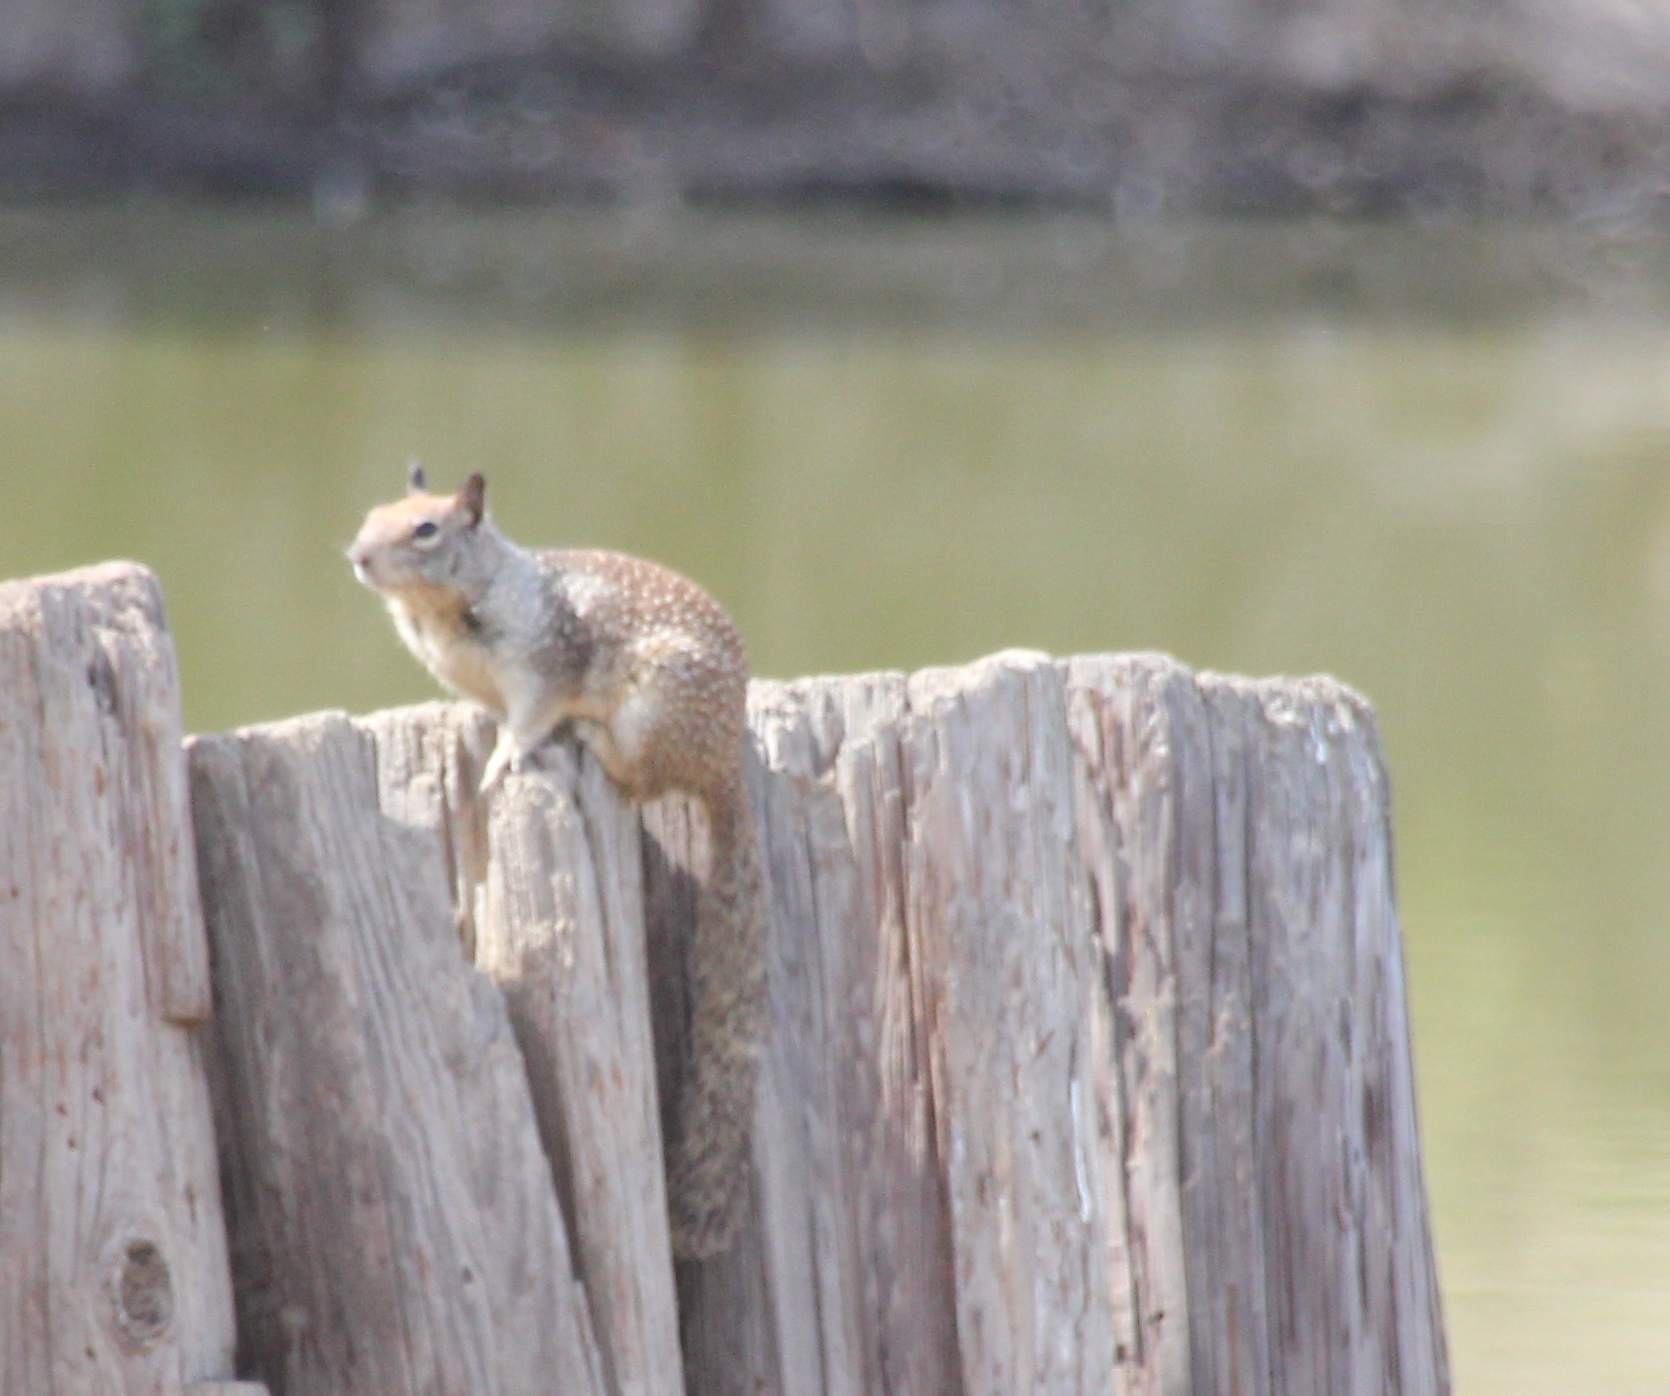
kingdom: Animalia
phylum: Chordata
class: Mammalia
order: Rodentia
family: Sciuridae
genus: Otospermophilus
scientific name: Otospermophilus beecheyi
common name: California ground squirrel
